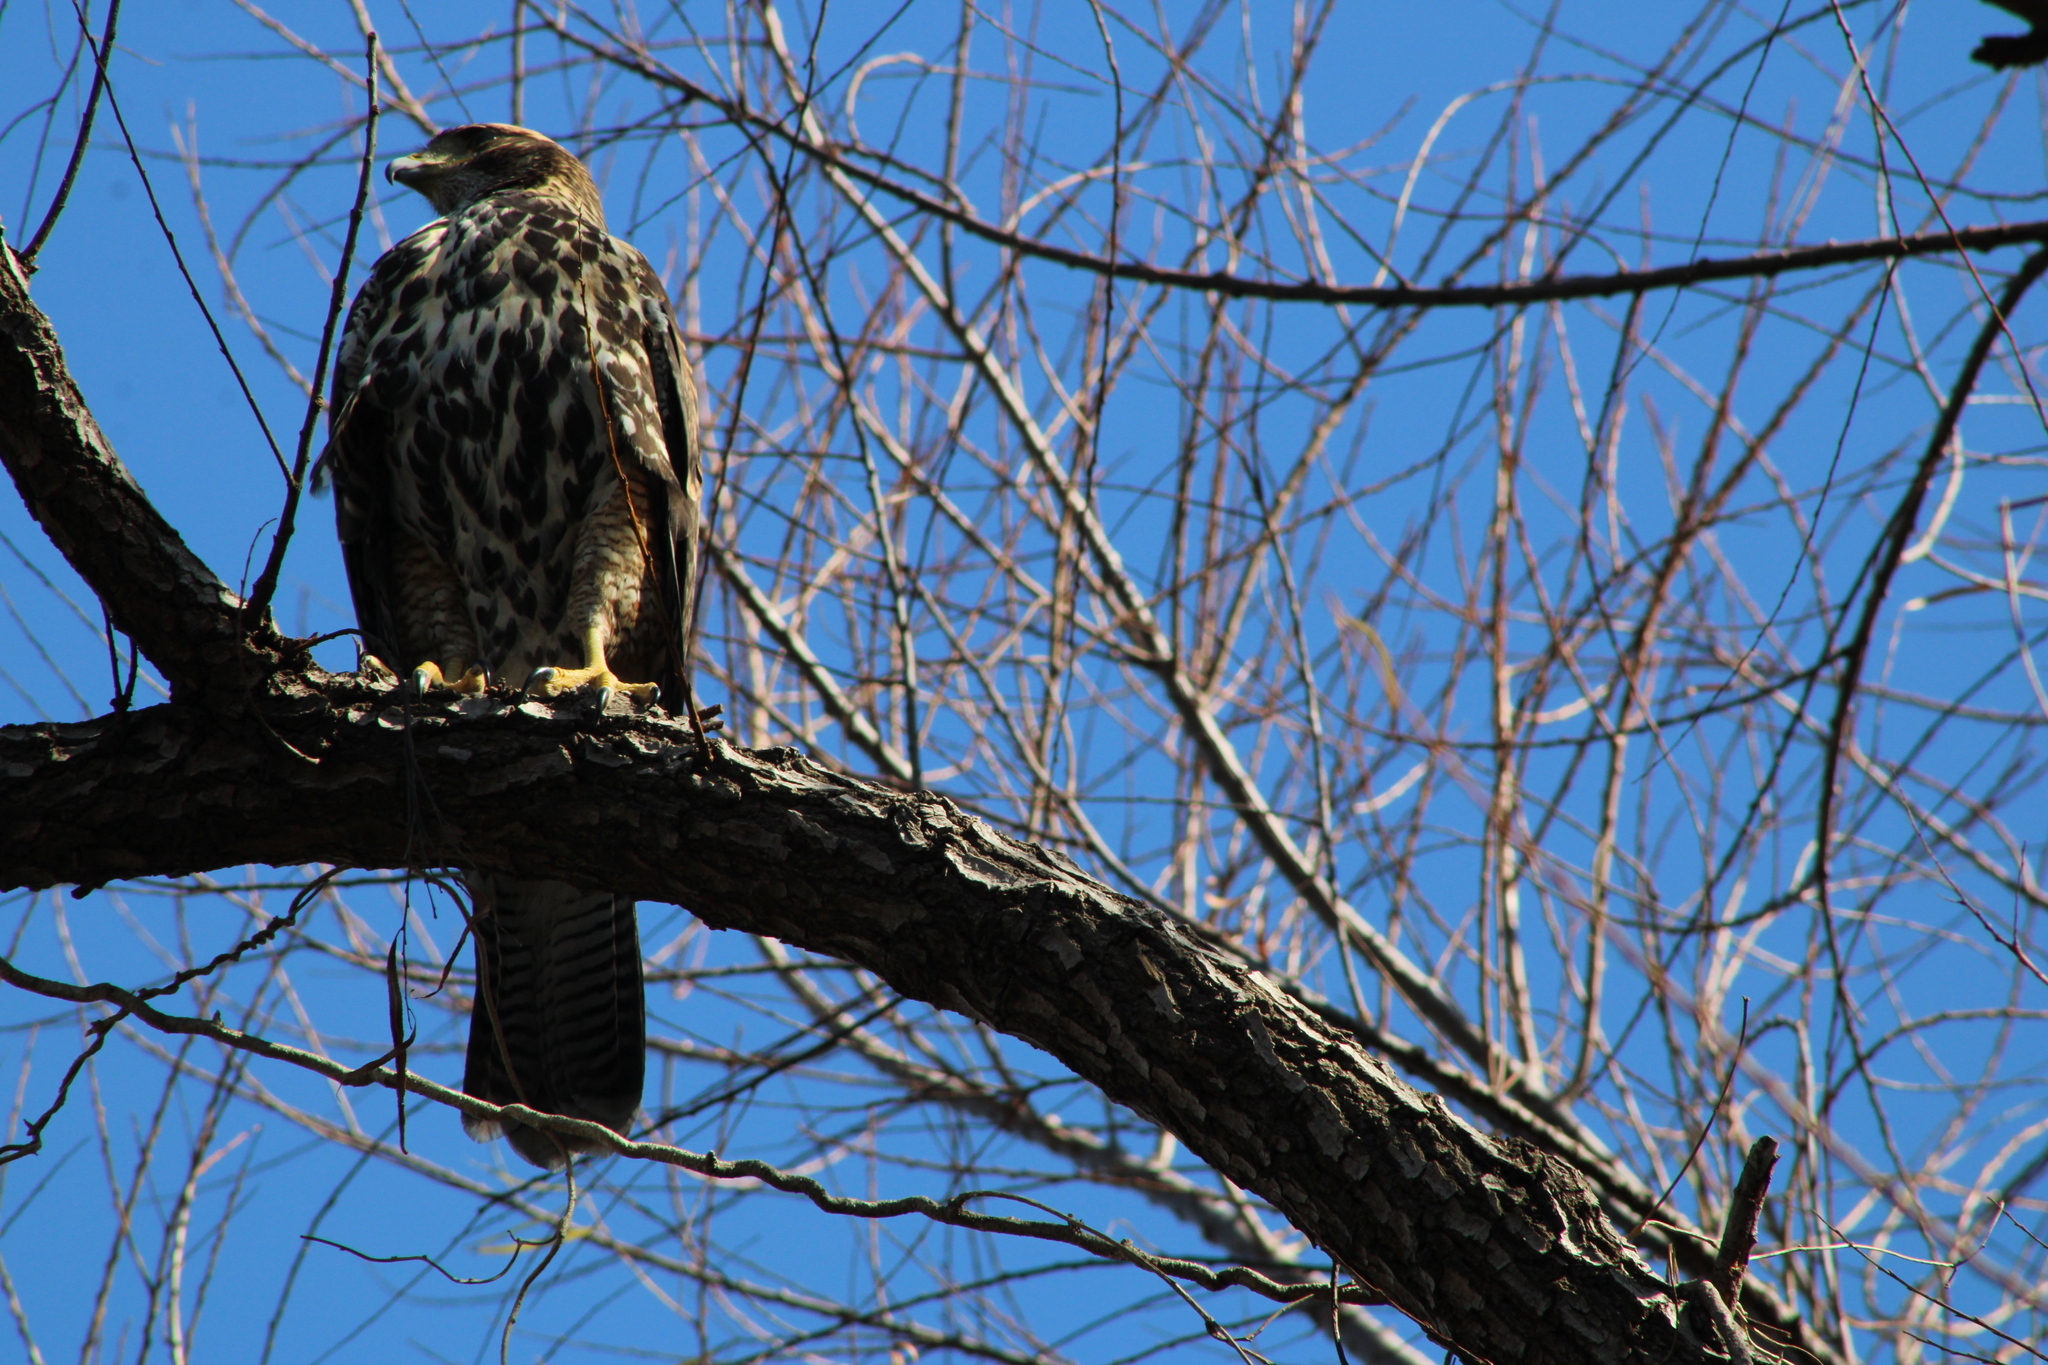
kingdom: Animalia
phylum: Chordata
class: Aves
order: Accipitriformes
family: Accipitridae
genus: Parabuteo
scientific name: Parabuteo unicinctus
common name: Harris's hawk
